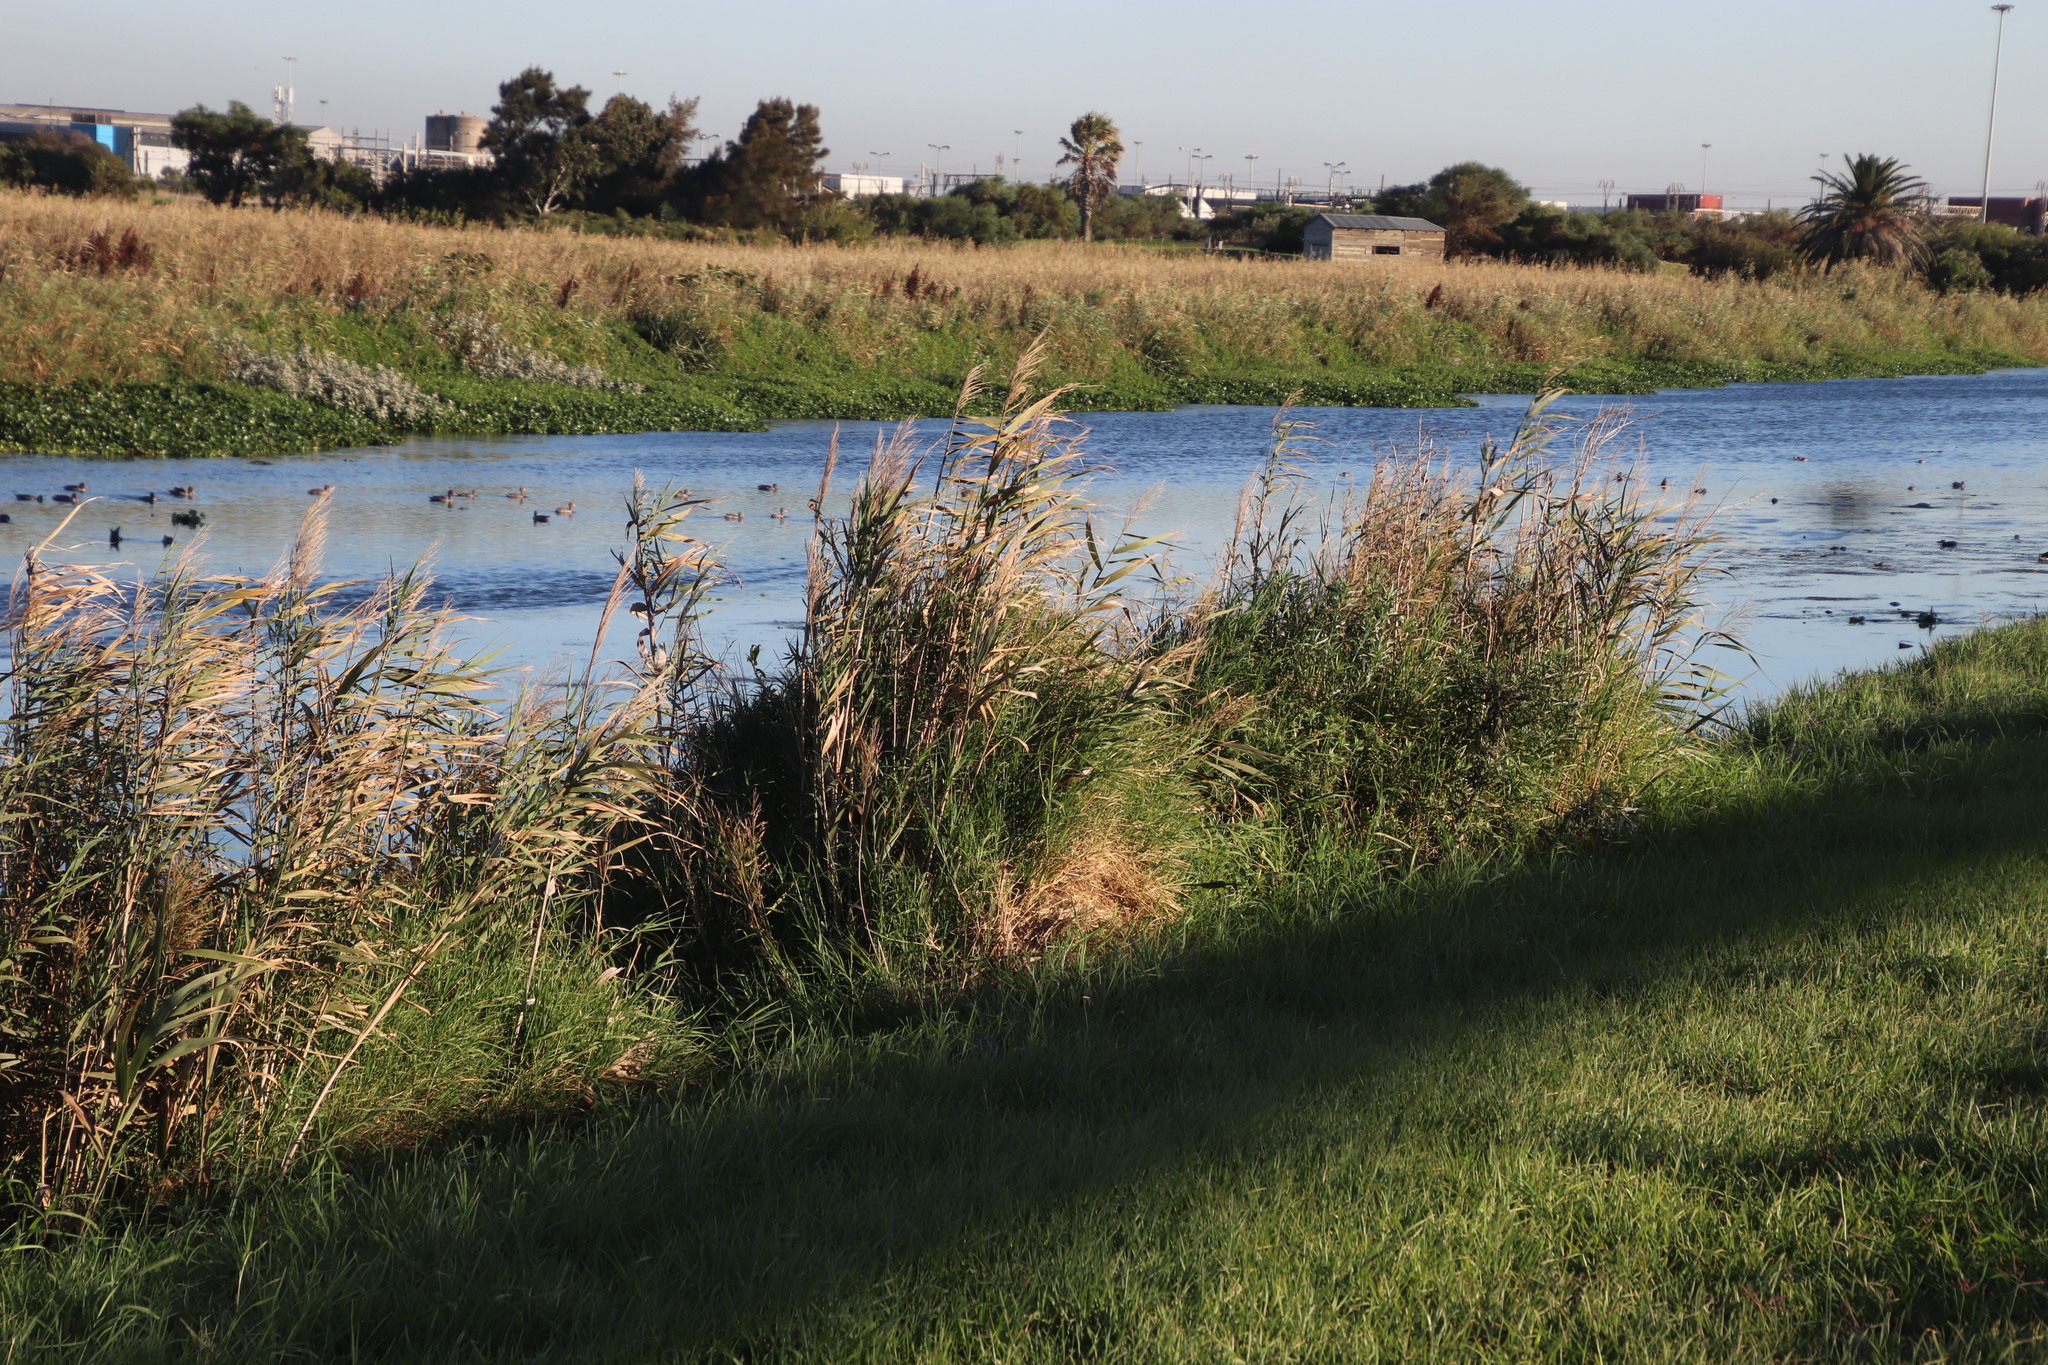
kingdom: Plantae
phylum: Tracheophyta
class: Liliopsida
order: Poales
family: Poaceae
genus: Phragmites
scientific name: Phragmites australis
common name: Common reed
